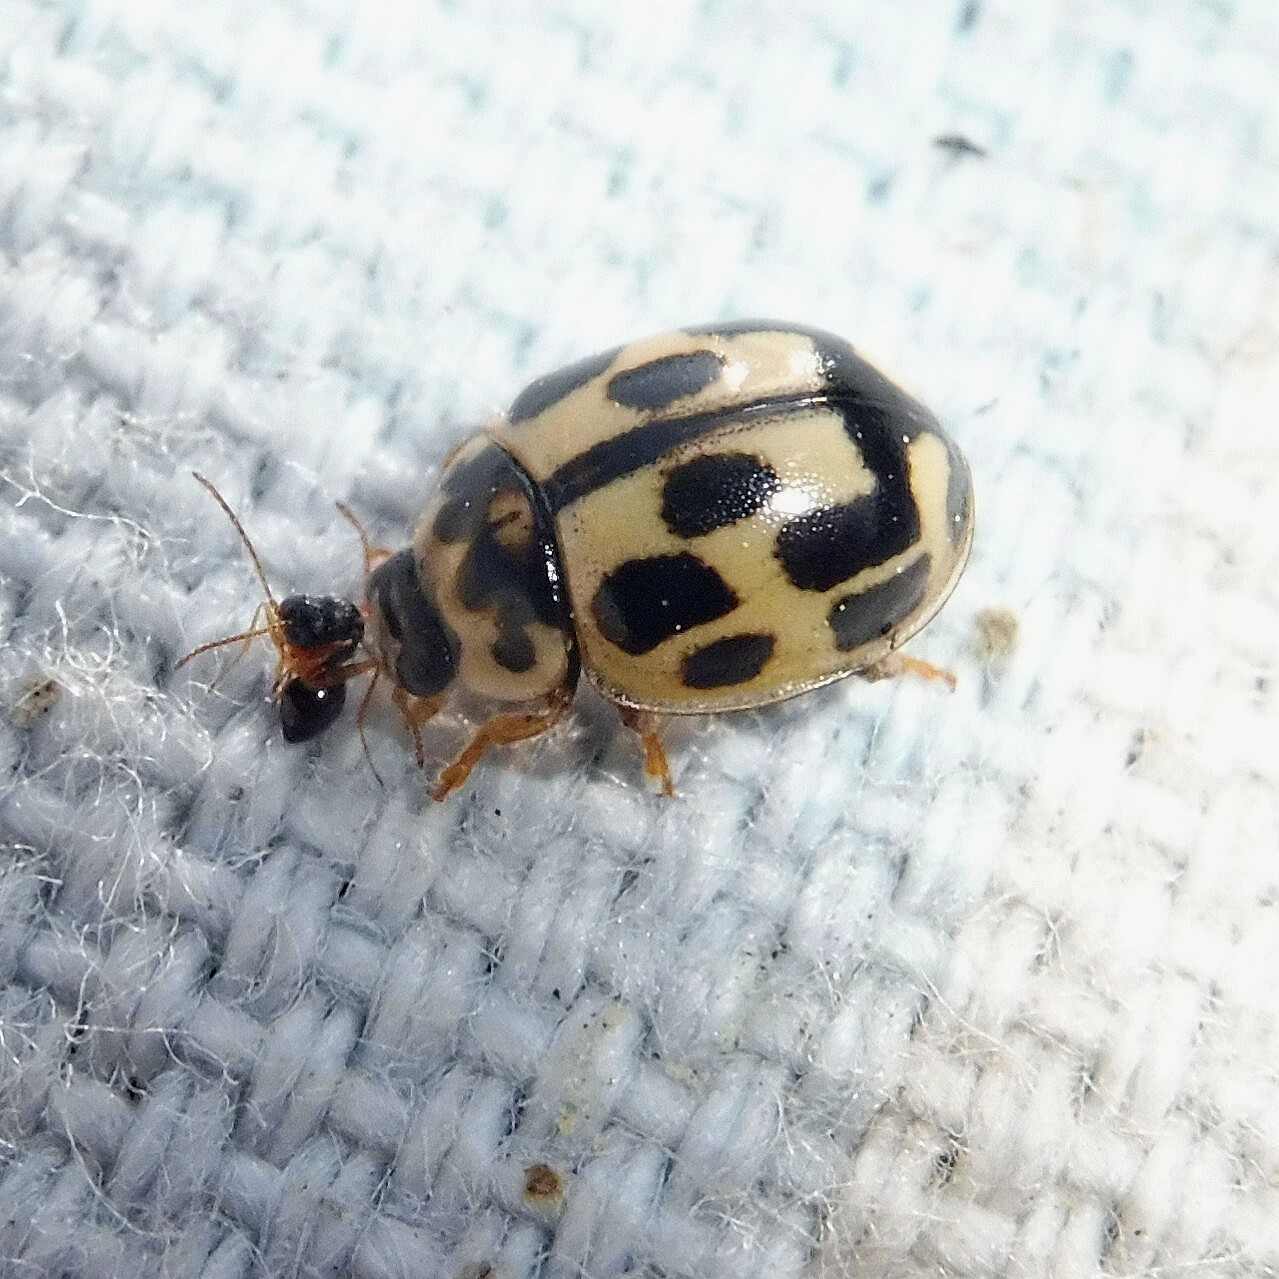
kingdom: Animalia
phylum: Arthropoda
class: Insecta
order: Coleoptera
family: Coccinellidae
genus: Propylaea
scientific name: Propylaea quatuordecimpunctata
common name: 14-spotted ladybird beetle
